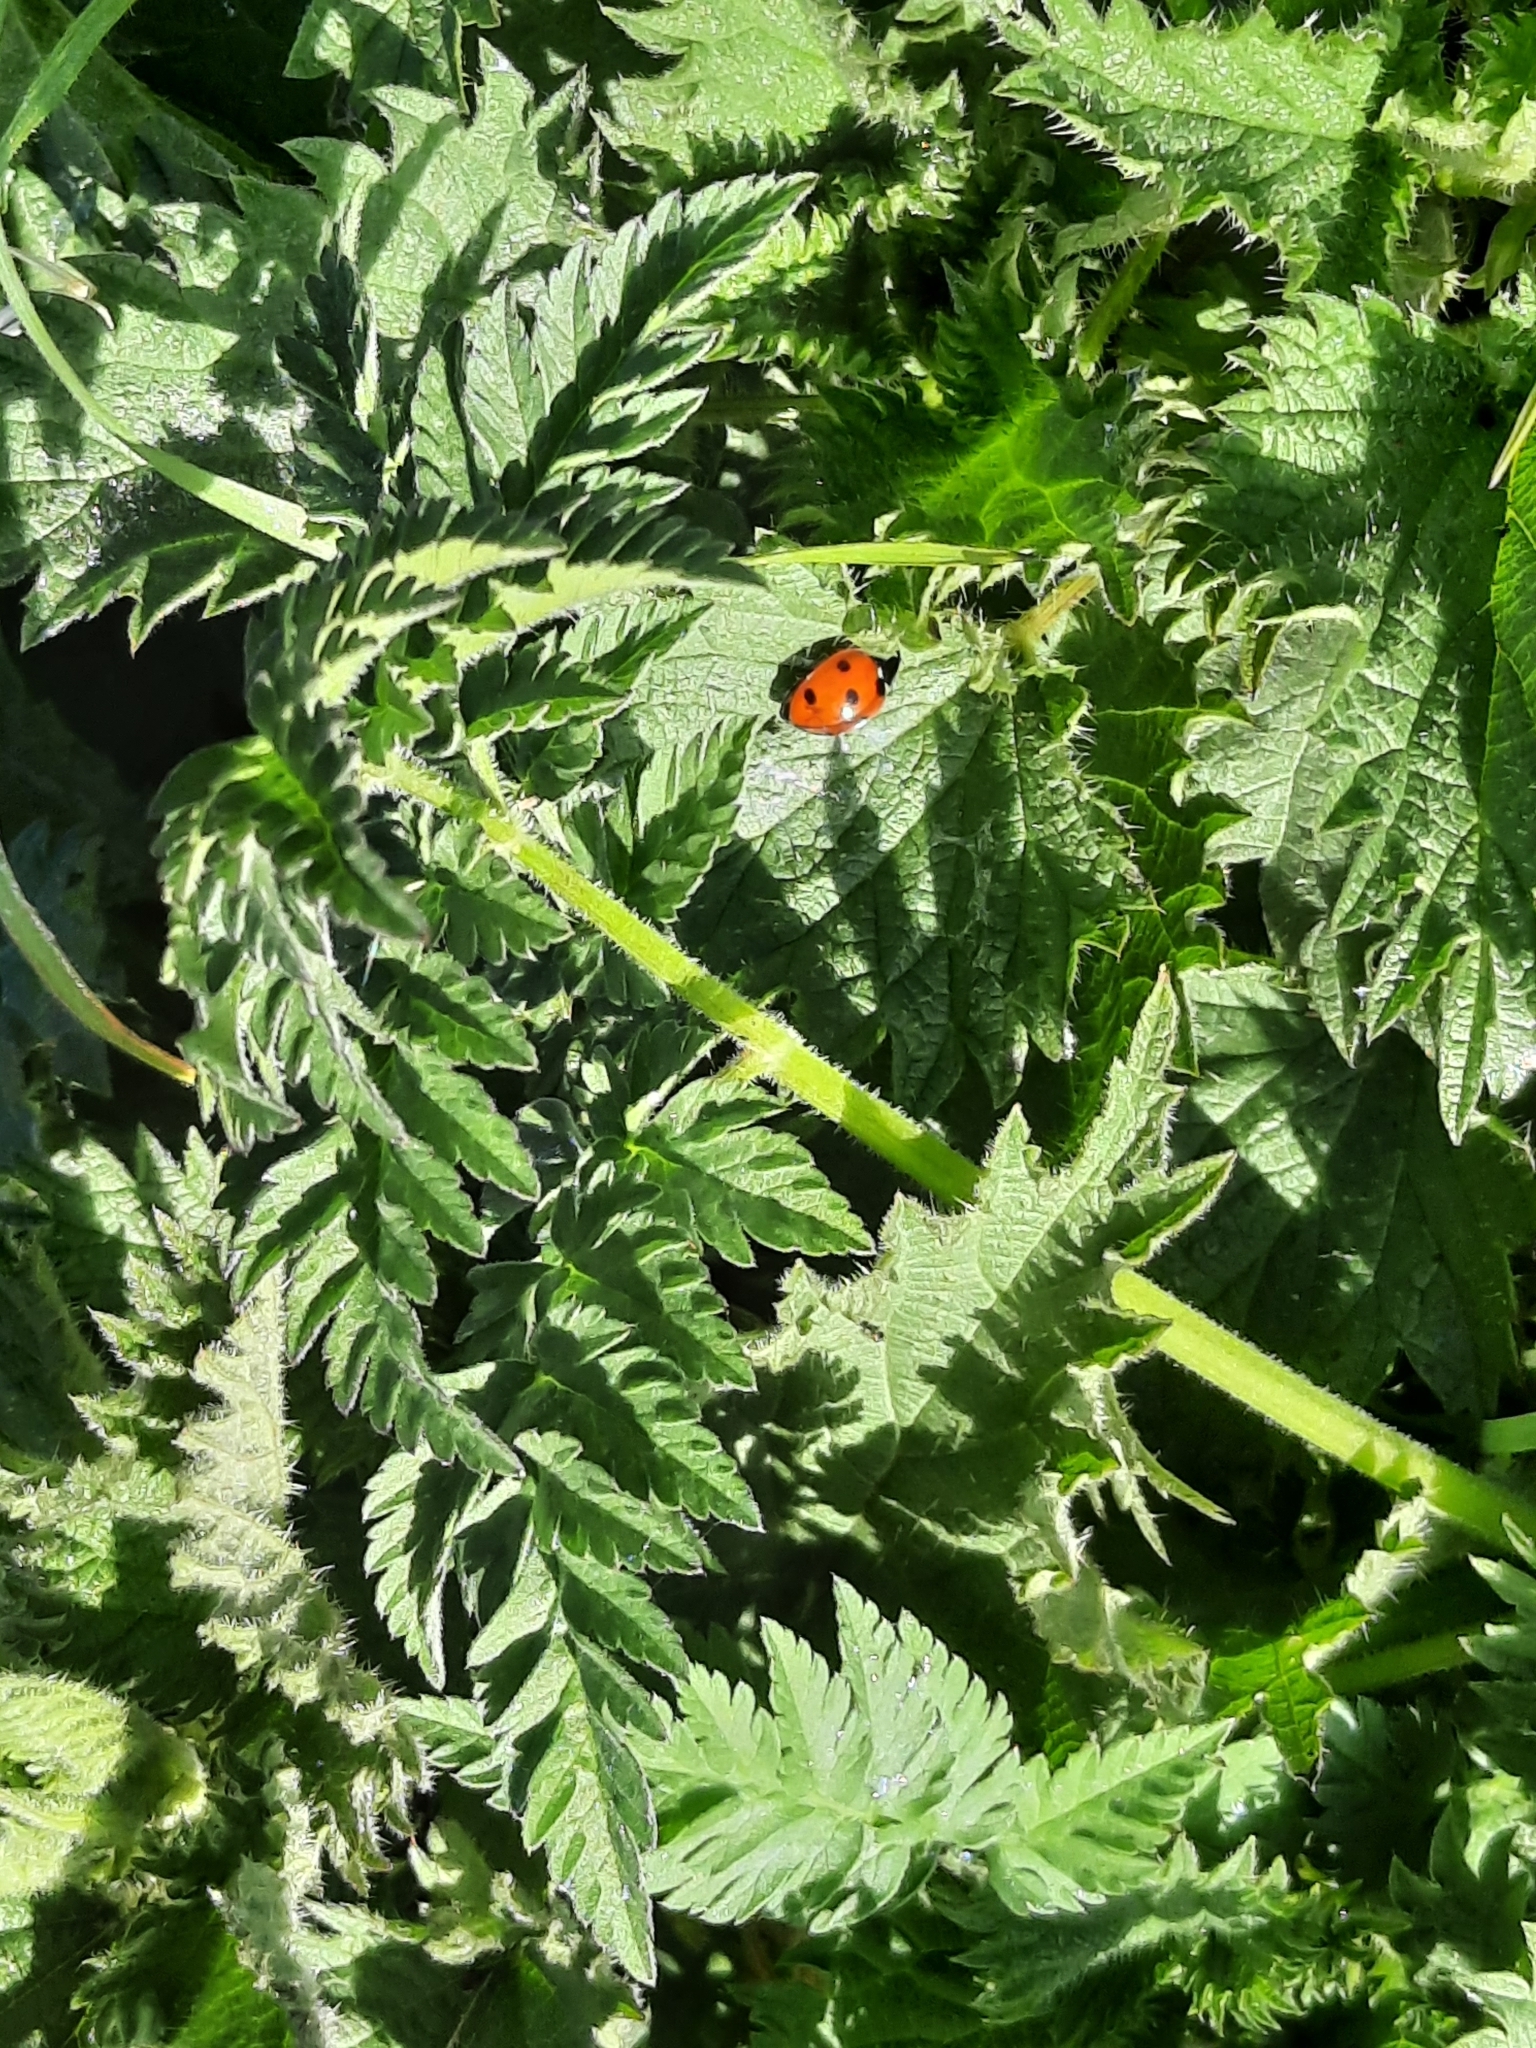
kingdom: Animalia
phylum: Arthropoda
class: Insecta
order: Coleoptera
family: Coccinellidae
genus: Coccinella
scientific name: Coccinella septempunctata
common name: Sevenspotted lady beetle
